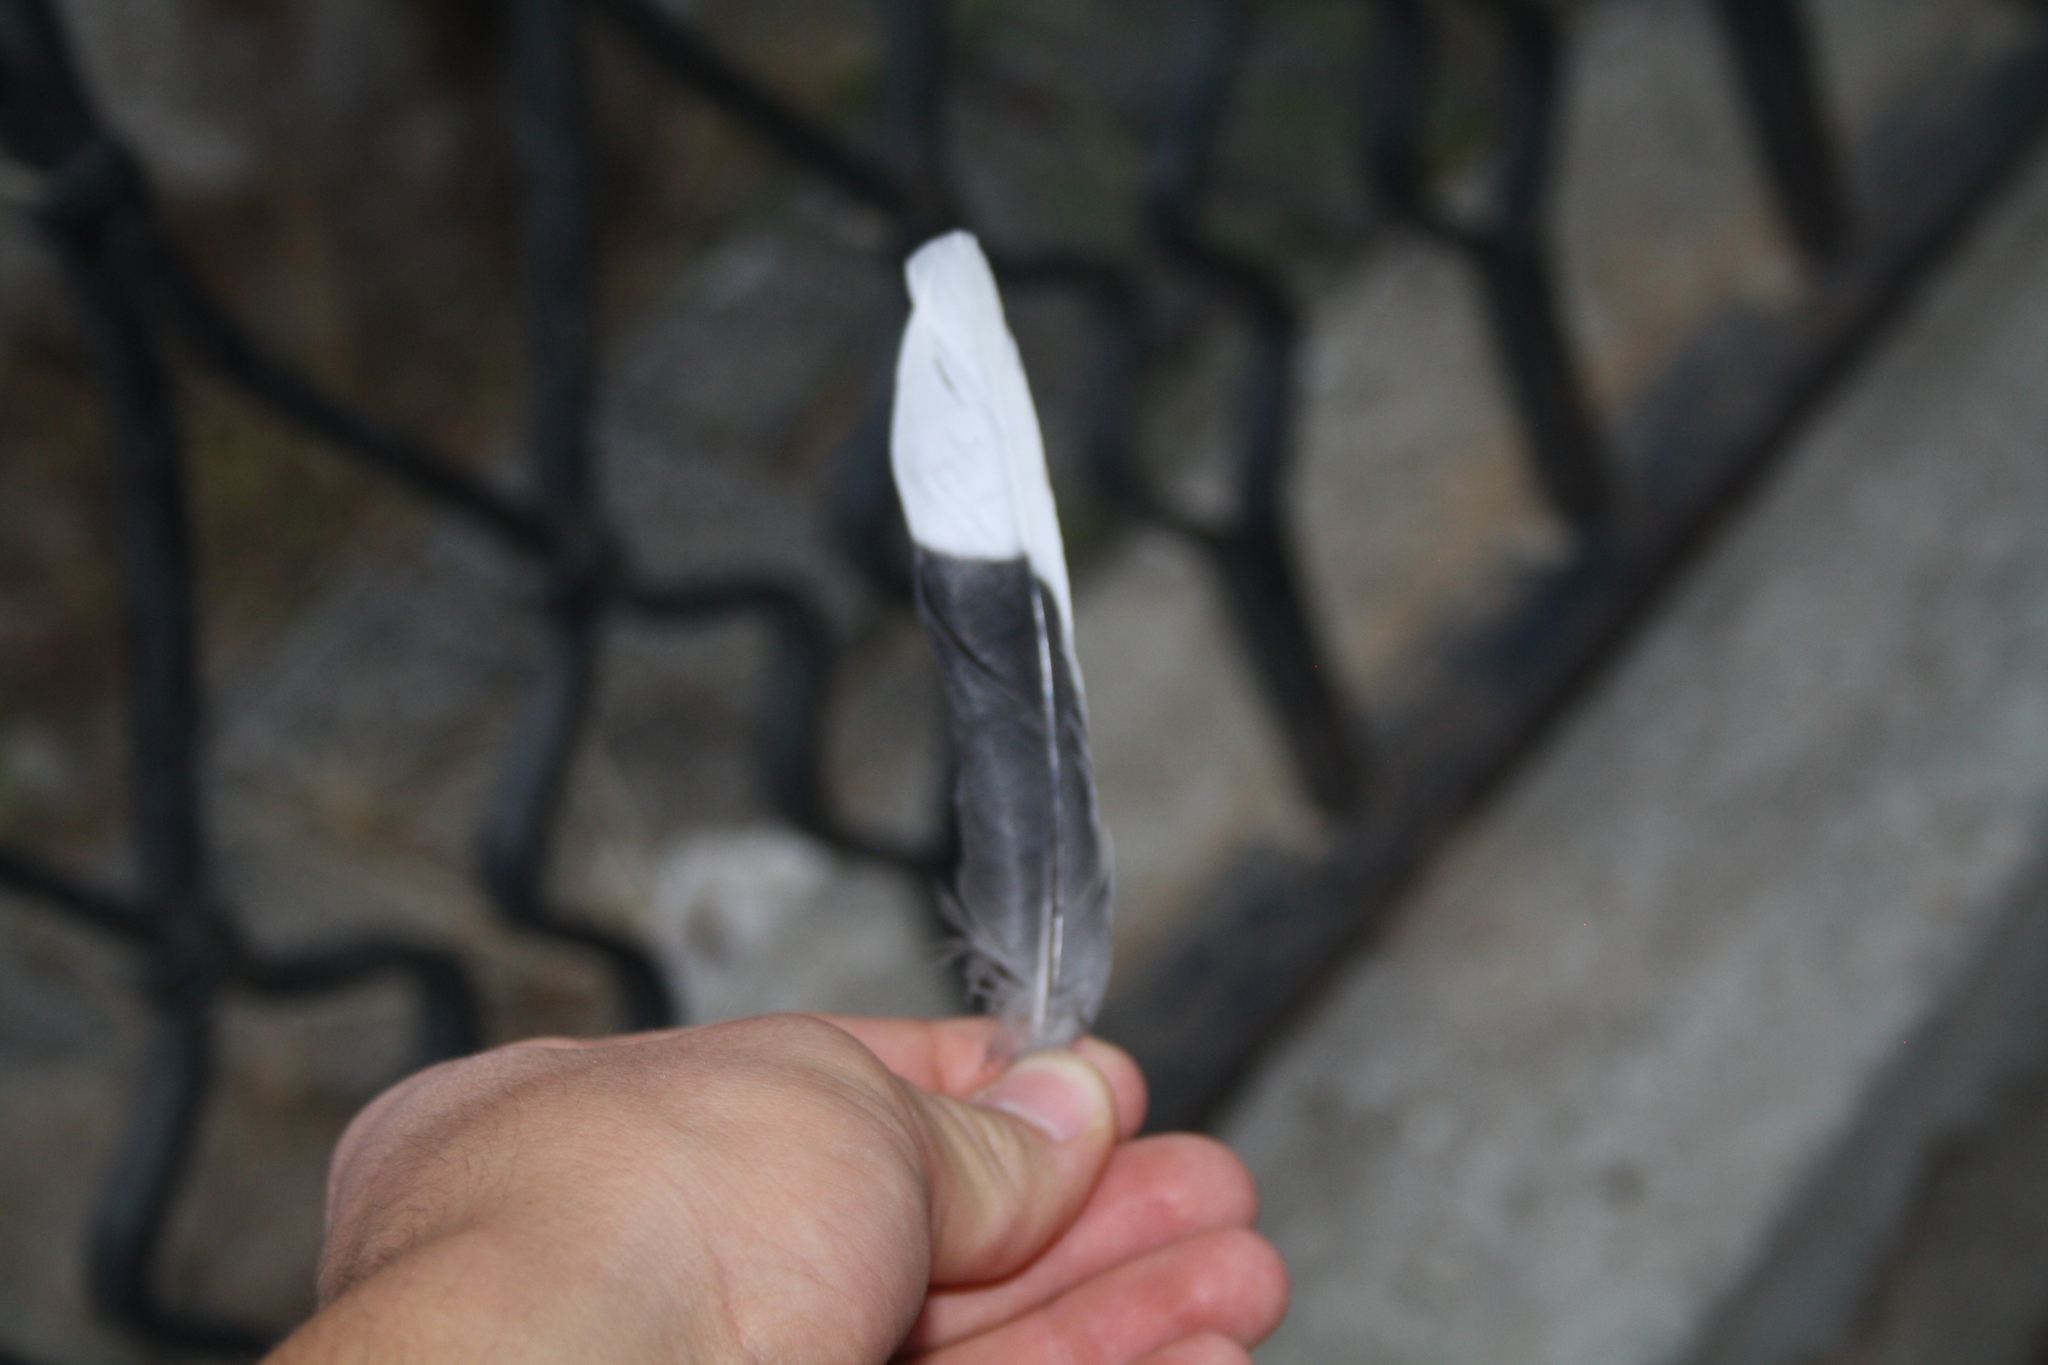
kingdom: Animalia
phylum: Chordata
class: Aves
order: Columbiformes
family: Columbidae
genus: Spilopelia
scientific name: Spilopelia senegalensis
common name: Laughing dove
